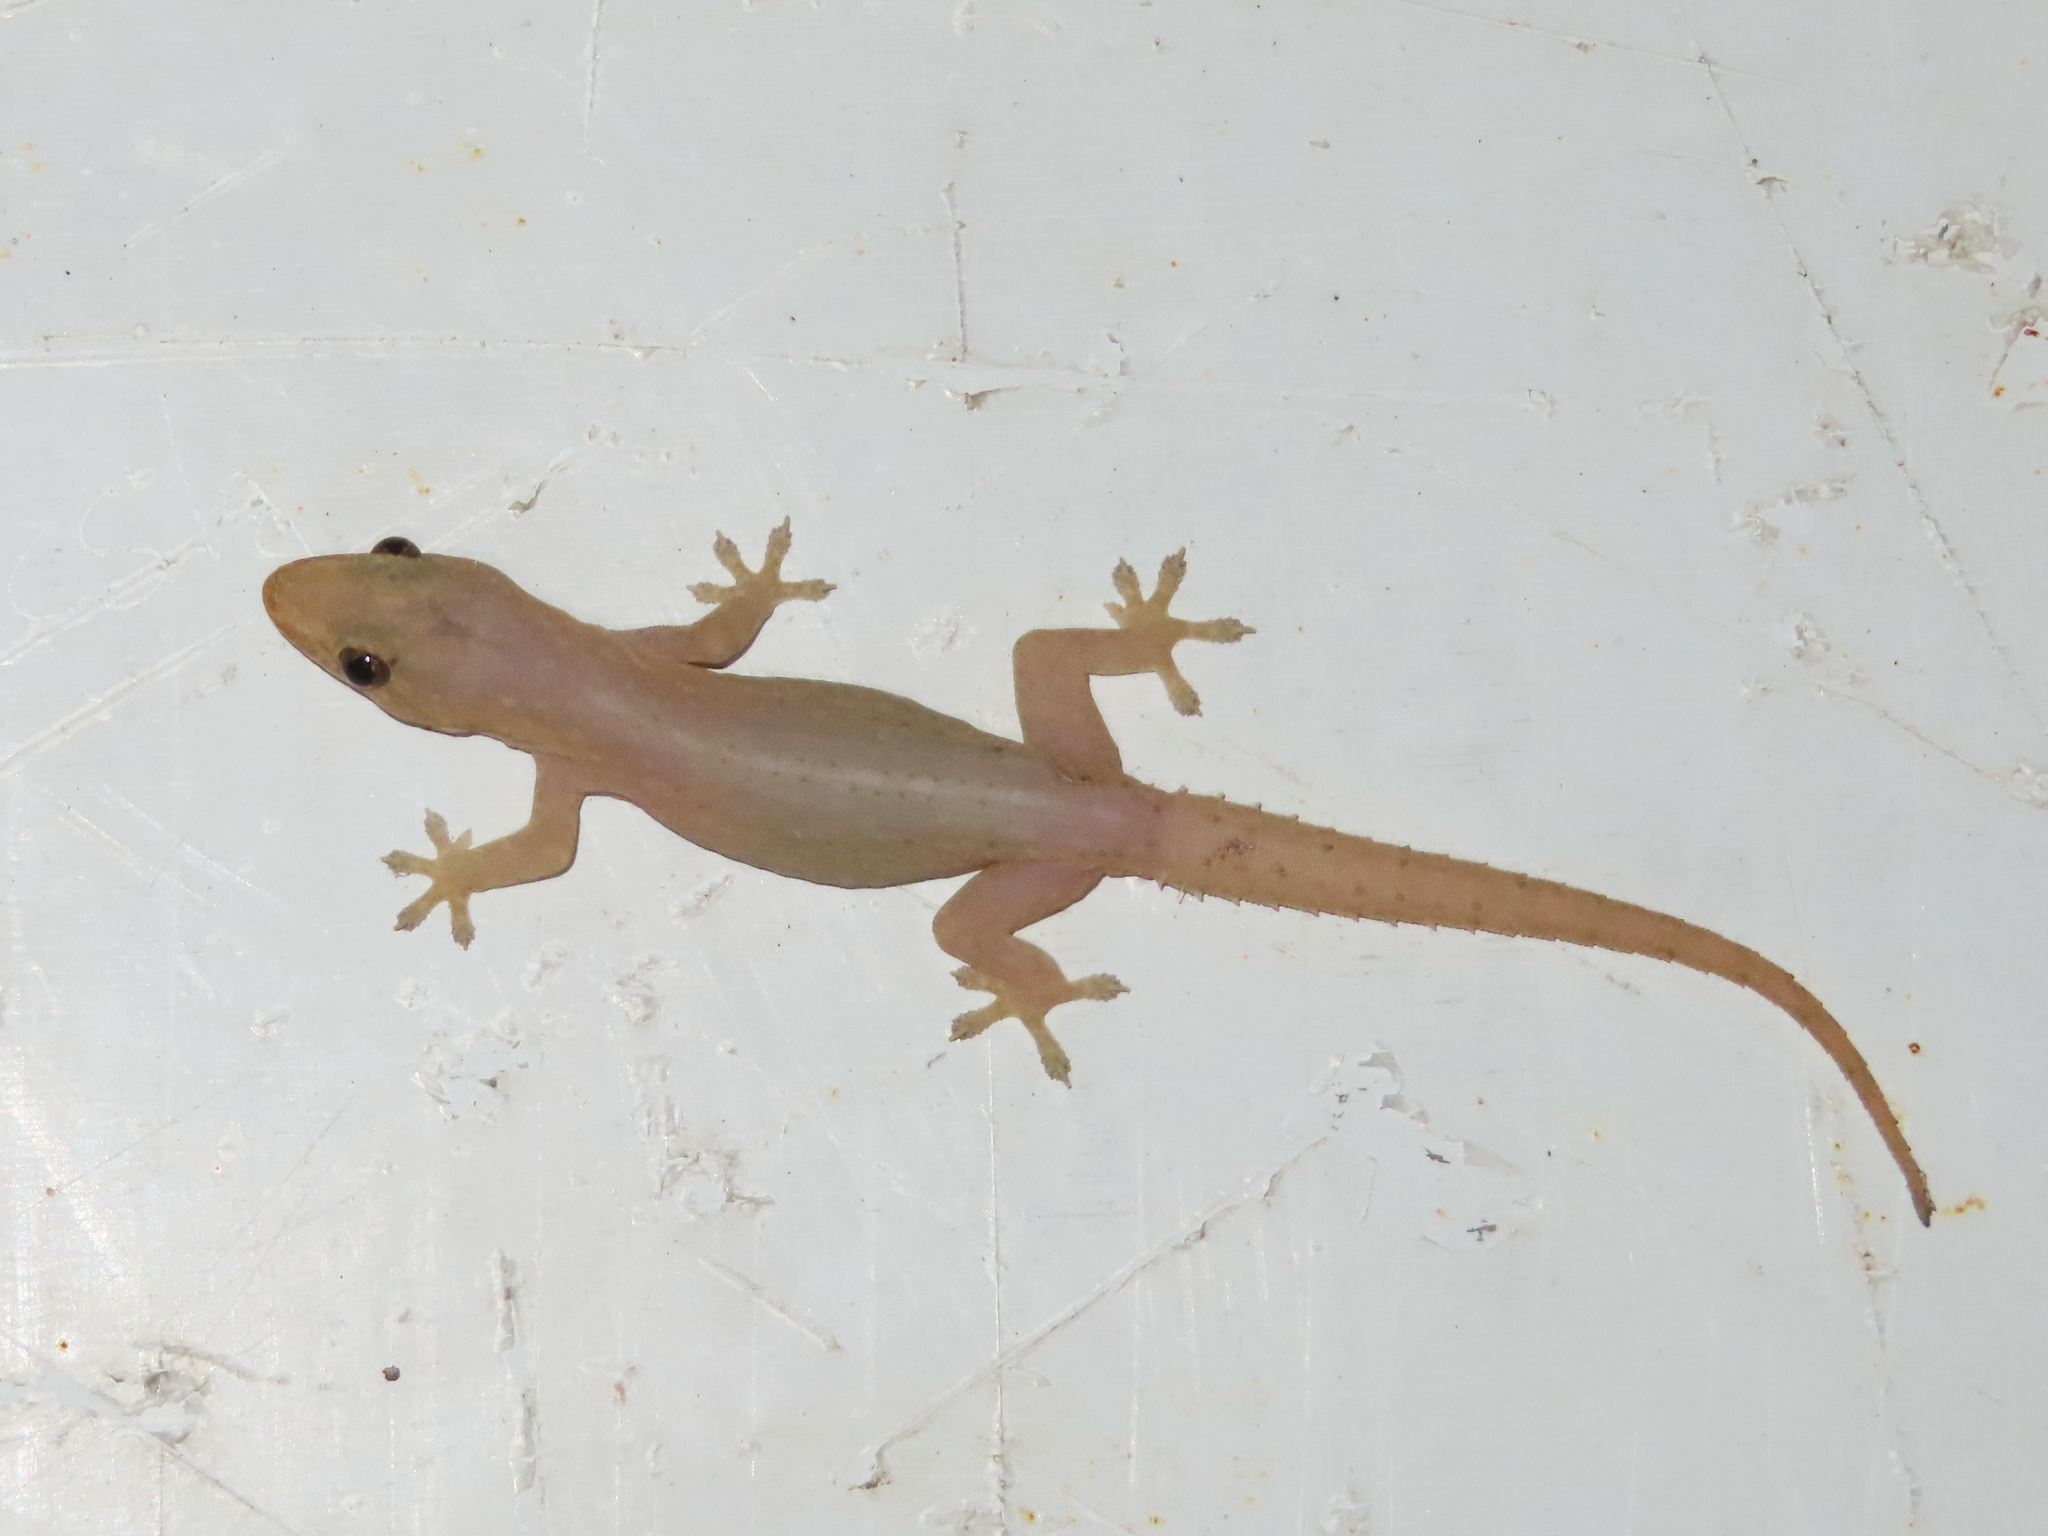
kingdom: Animalia
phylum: Chordata
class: Squamata
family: Gekkonidae
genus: Hemidactylus
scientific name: Hemidactylus frenatus
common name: Common house gecko
